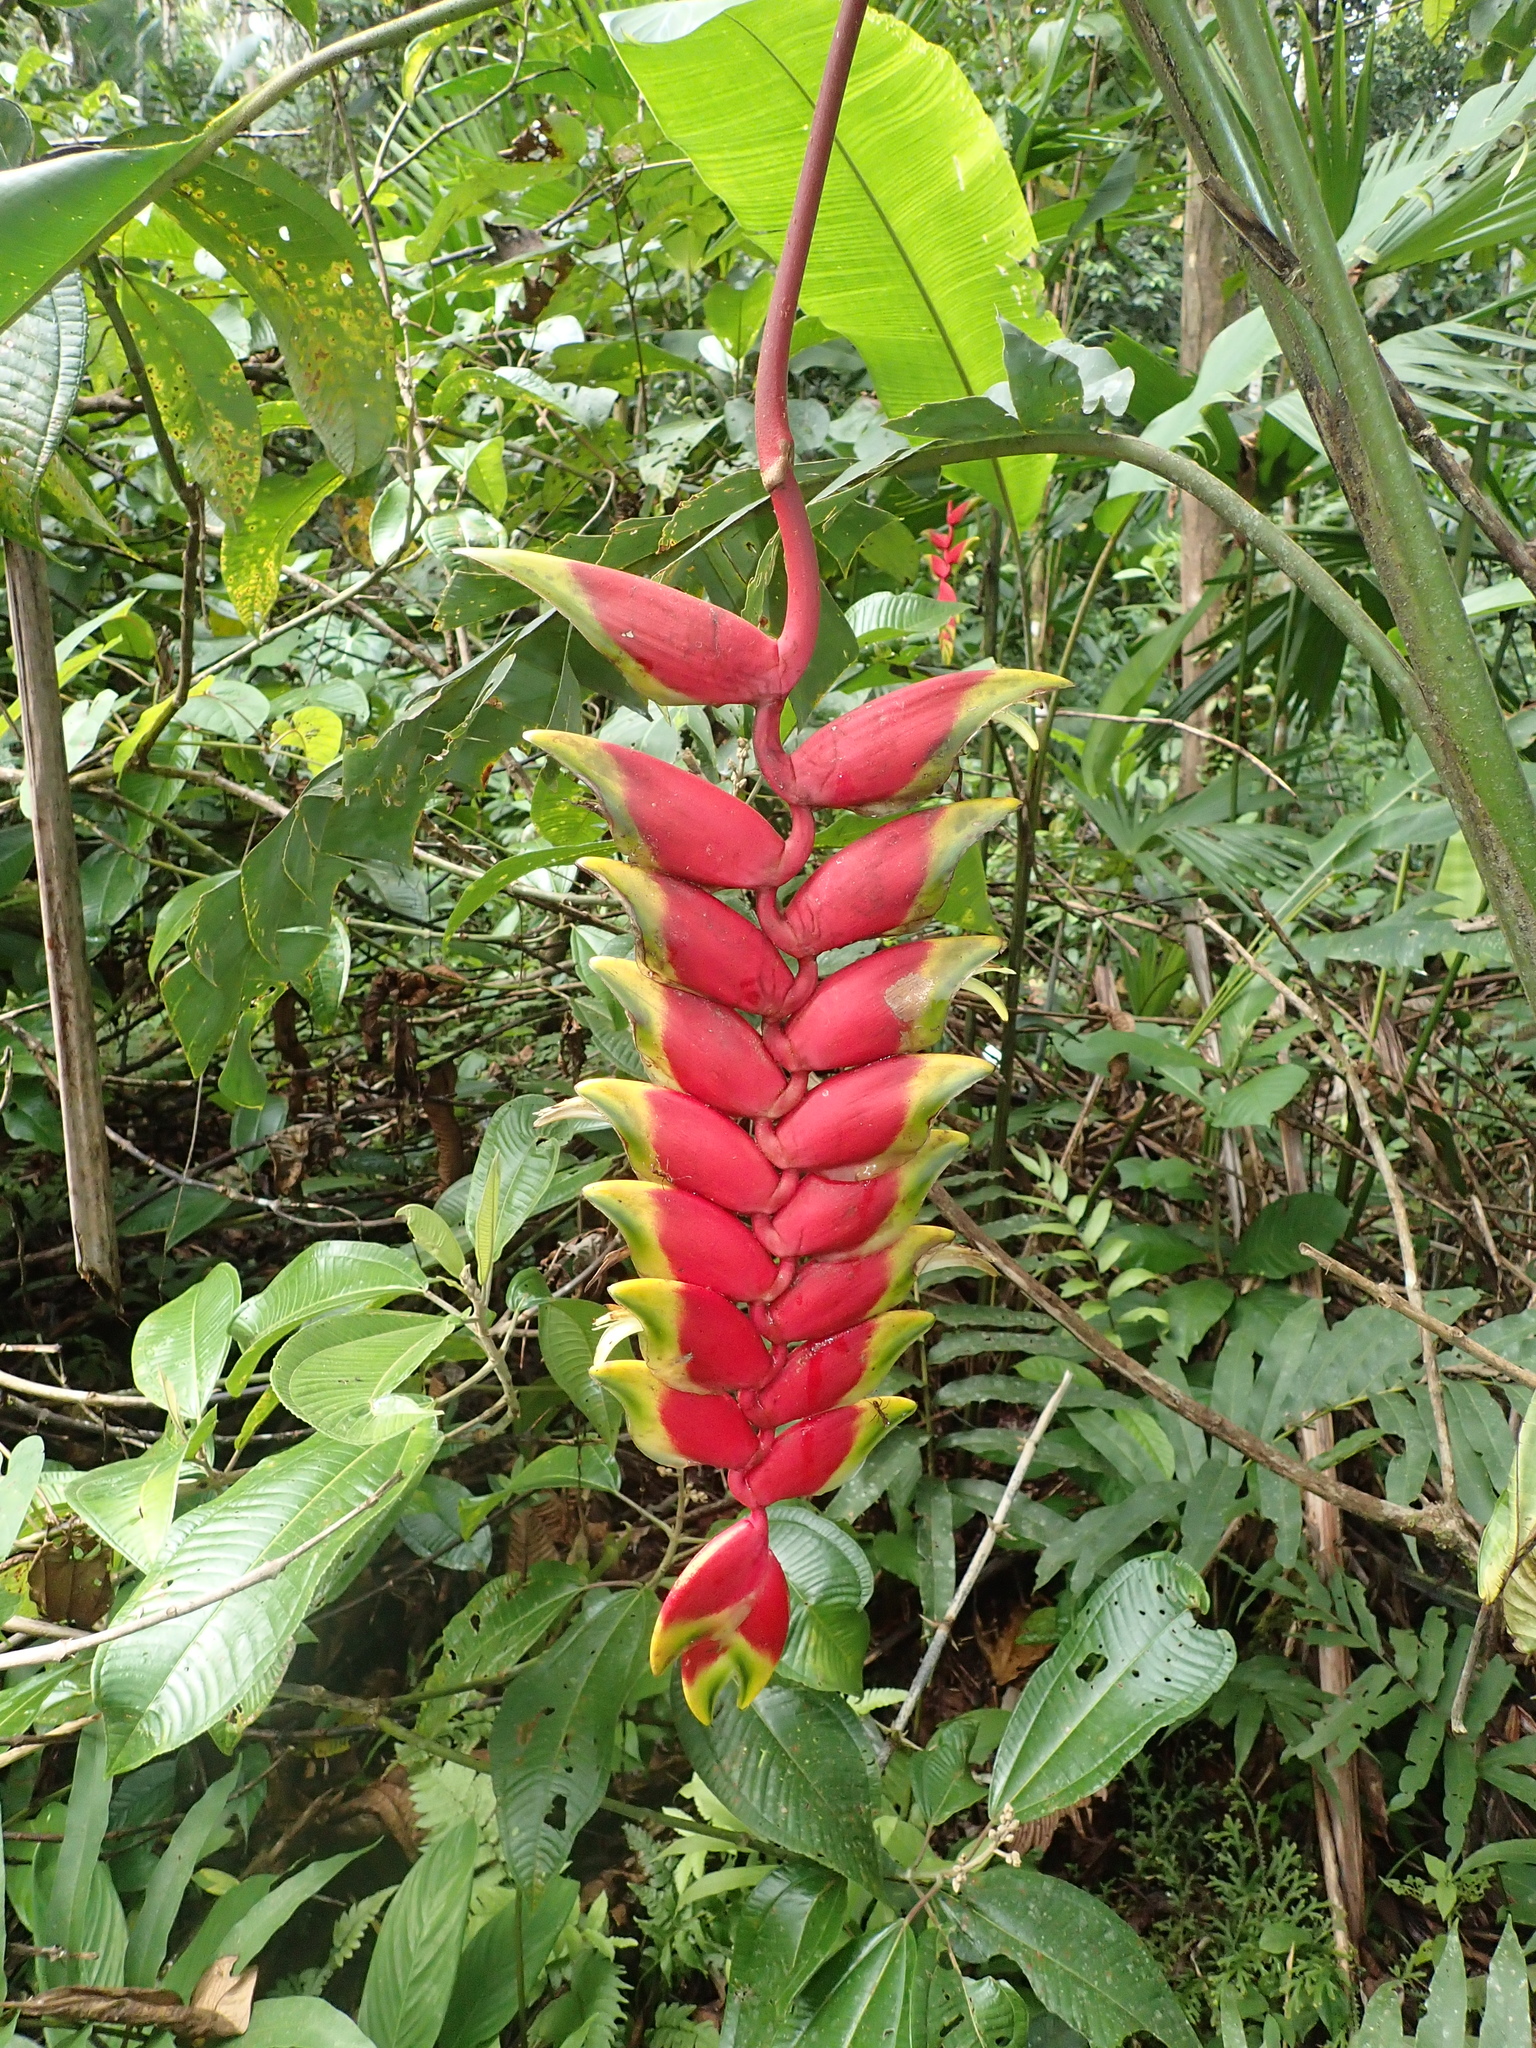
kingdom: Plantae
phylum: Tracheophyta
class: Liliopsida
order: Zingiberales
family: Heliconiaceae
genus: Heliconia
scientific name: Heliconia rostrata
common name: False bird of paradise
